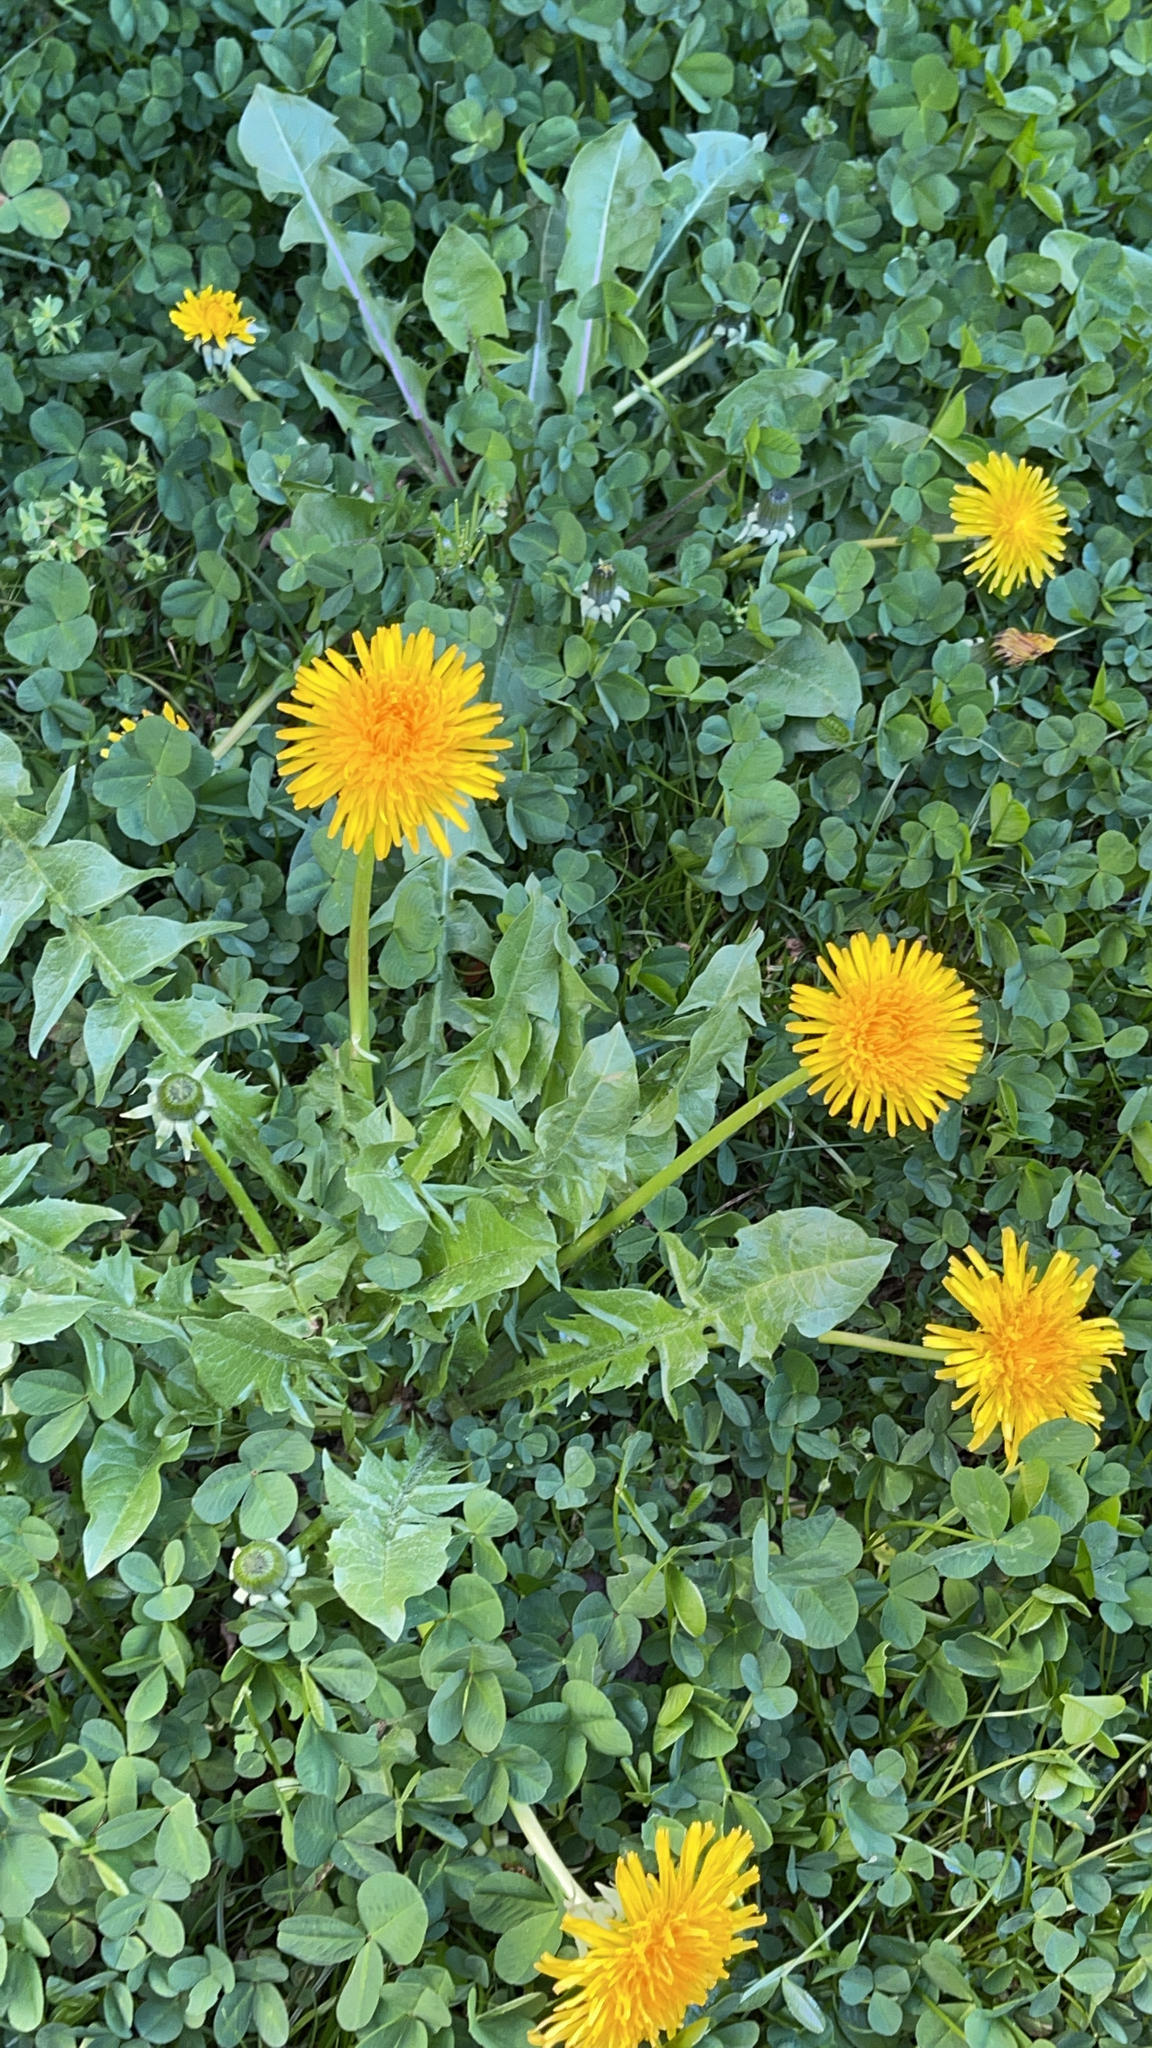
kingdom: Plantae
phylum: Tracheophyta
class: Magnoliopsida
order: Asterales
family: Asteraceae
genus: Taraxacum
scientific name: Taraxacum officinale
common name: Common dandelion
